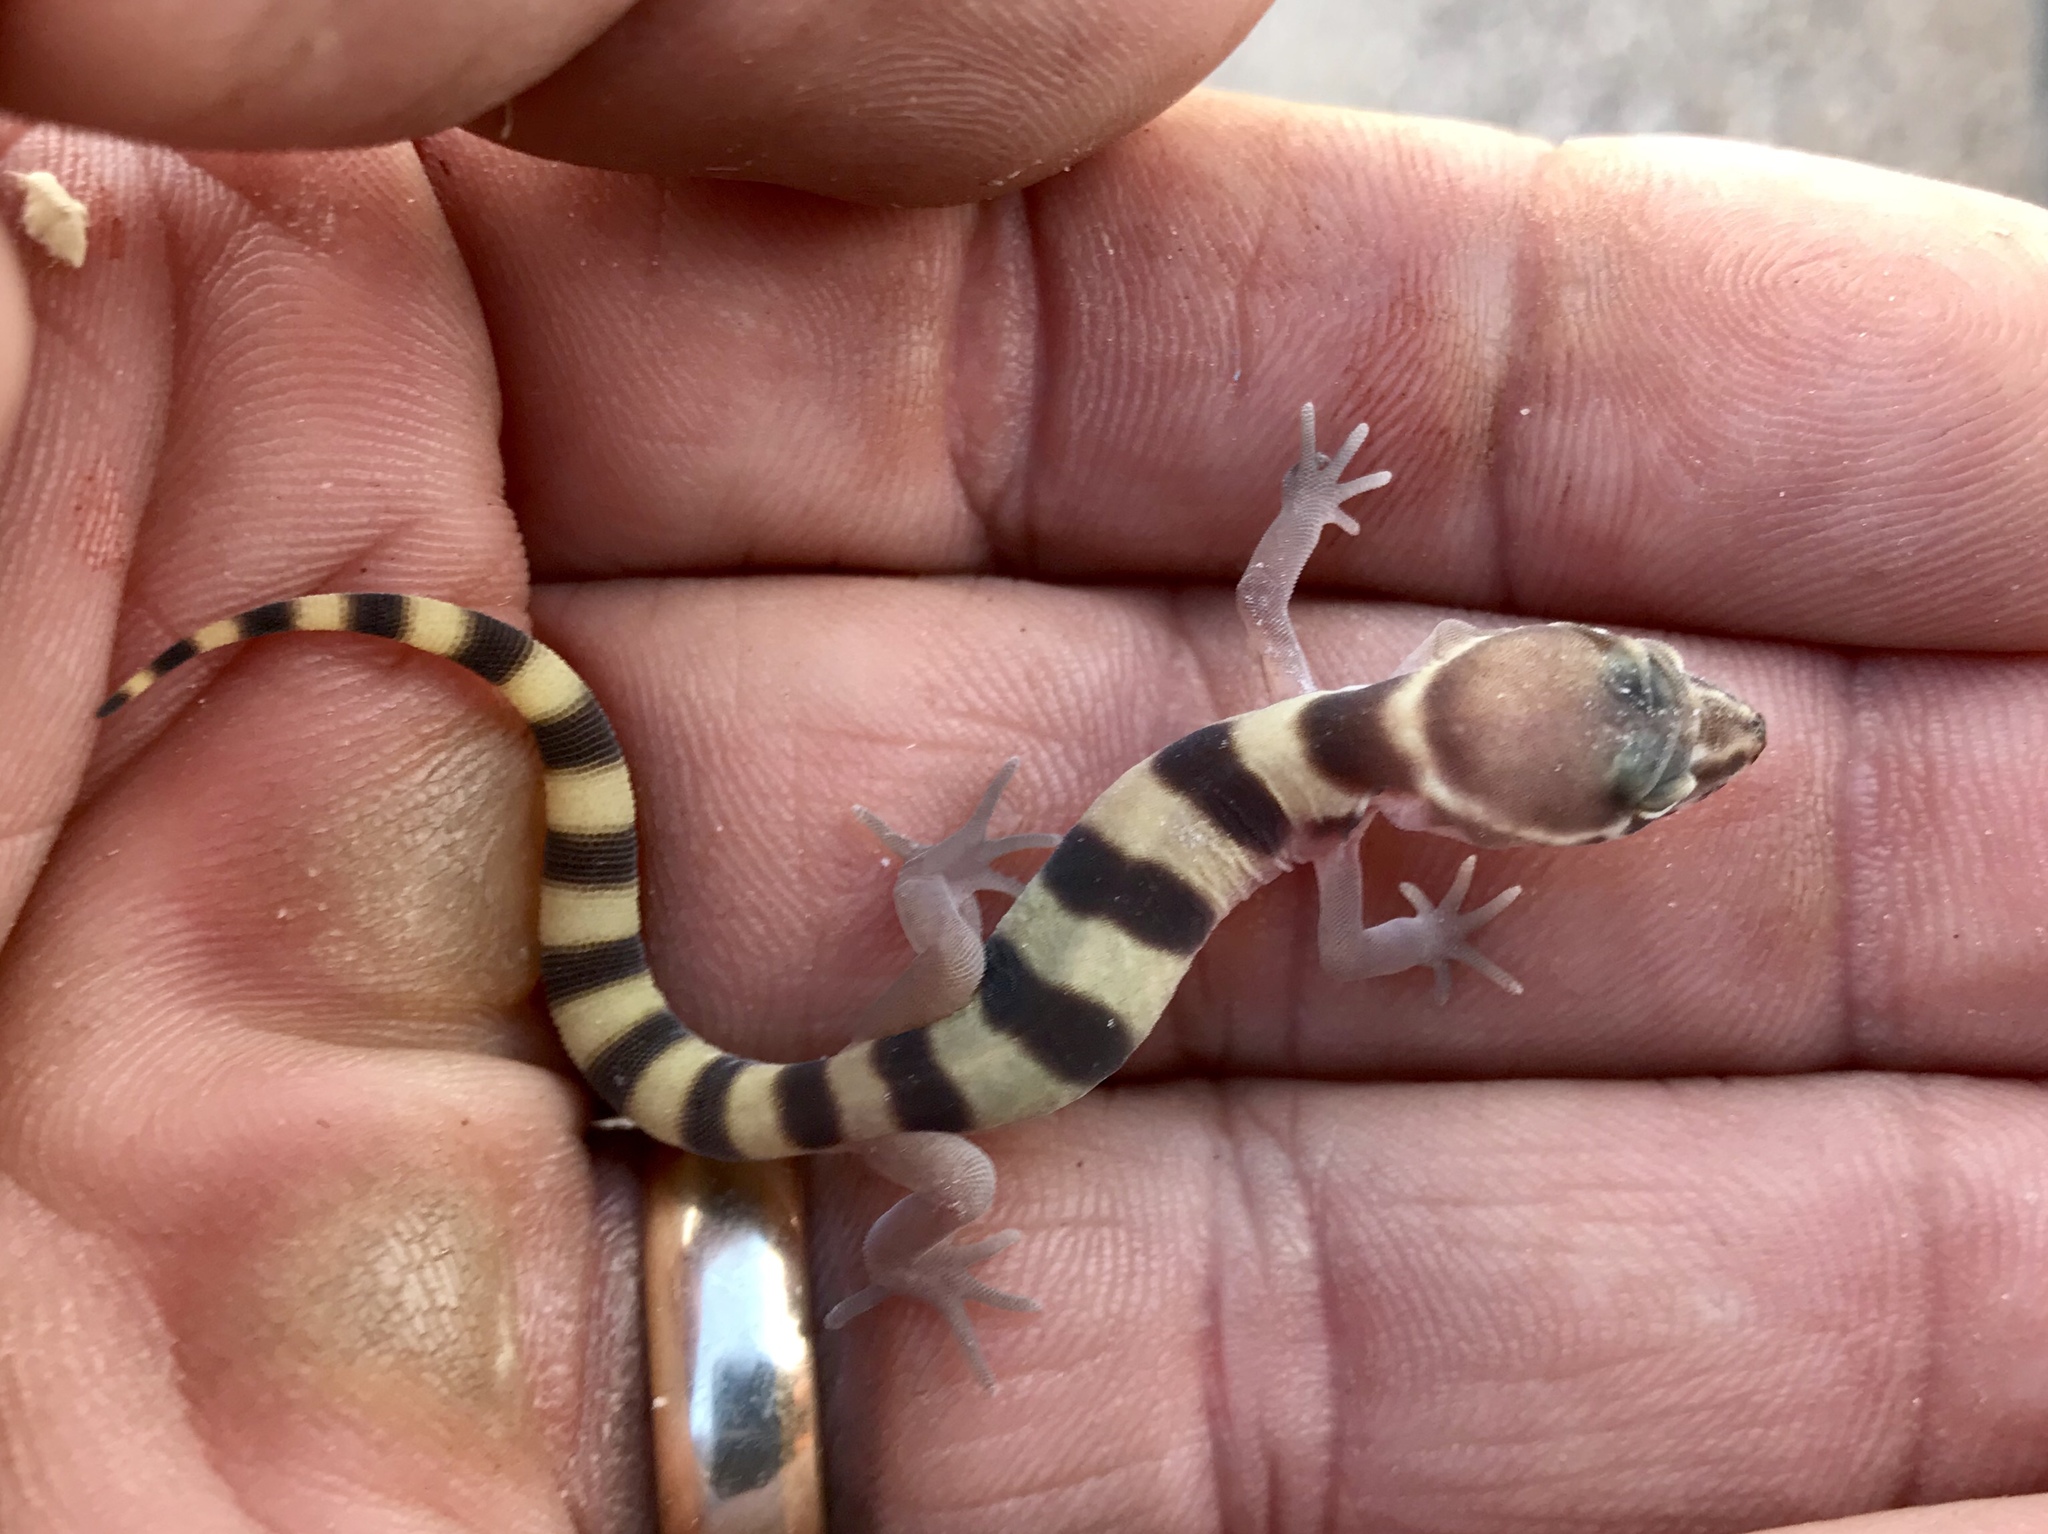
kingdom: Animalia
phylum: Chordata
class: Squamata
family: Eublepharidae
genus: Coleonyx
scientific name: Coleonyx variegatus
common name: Western banded gecko
